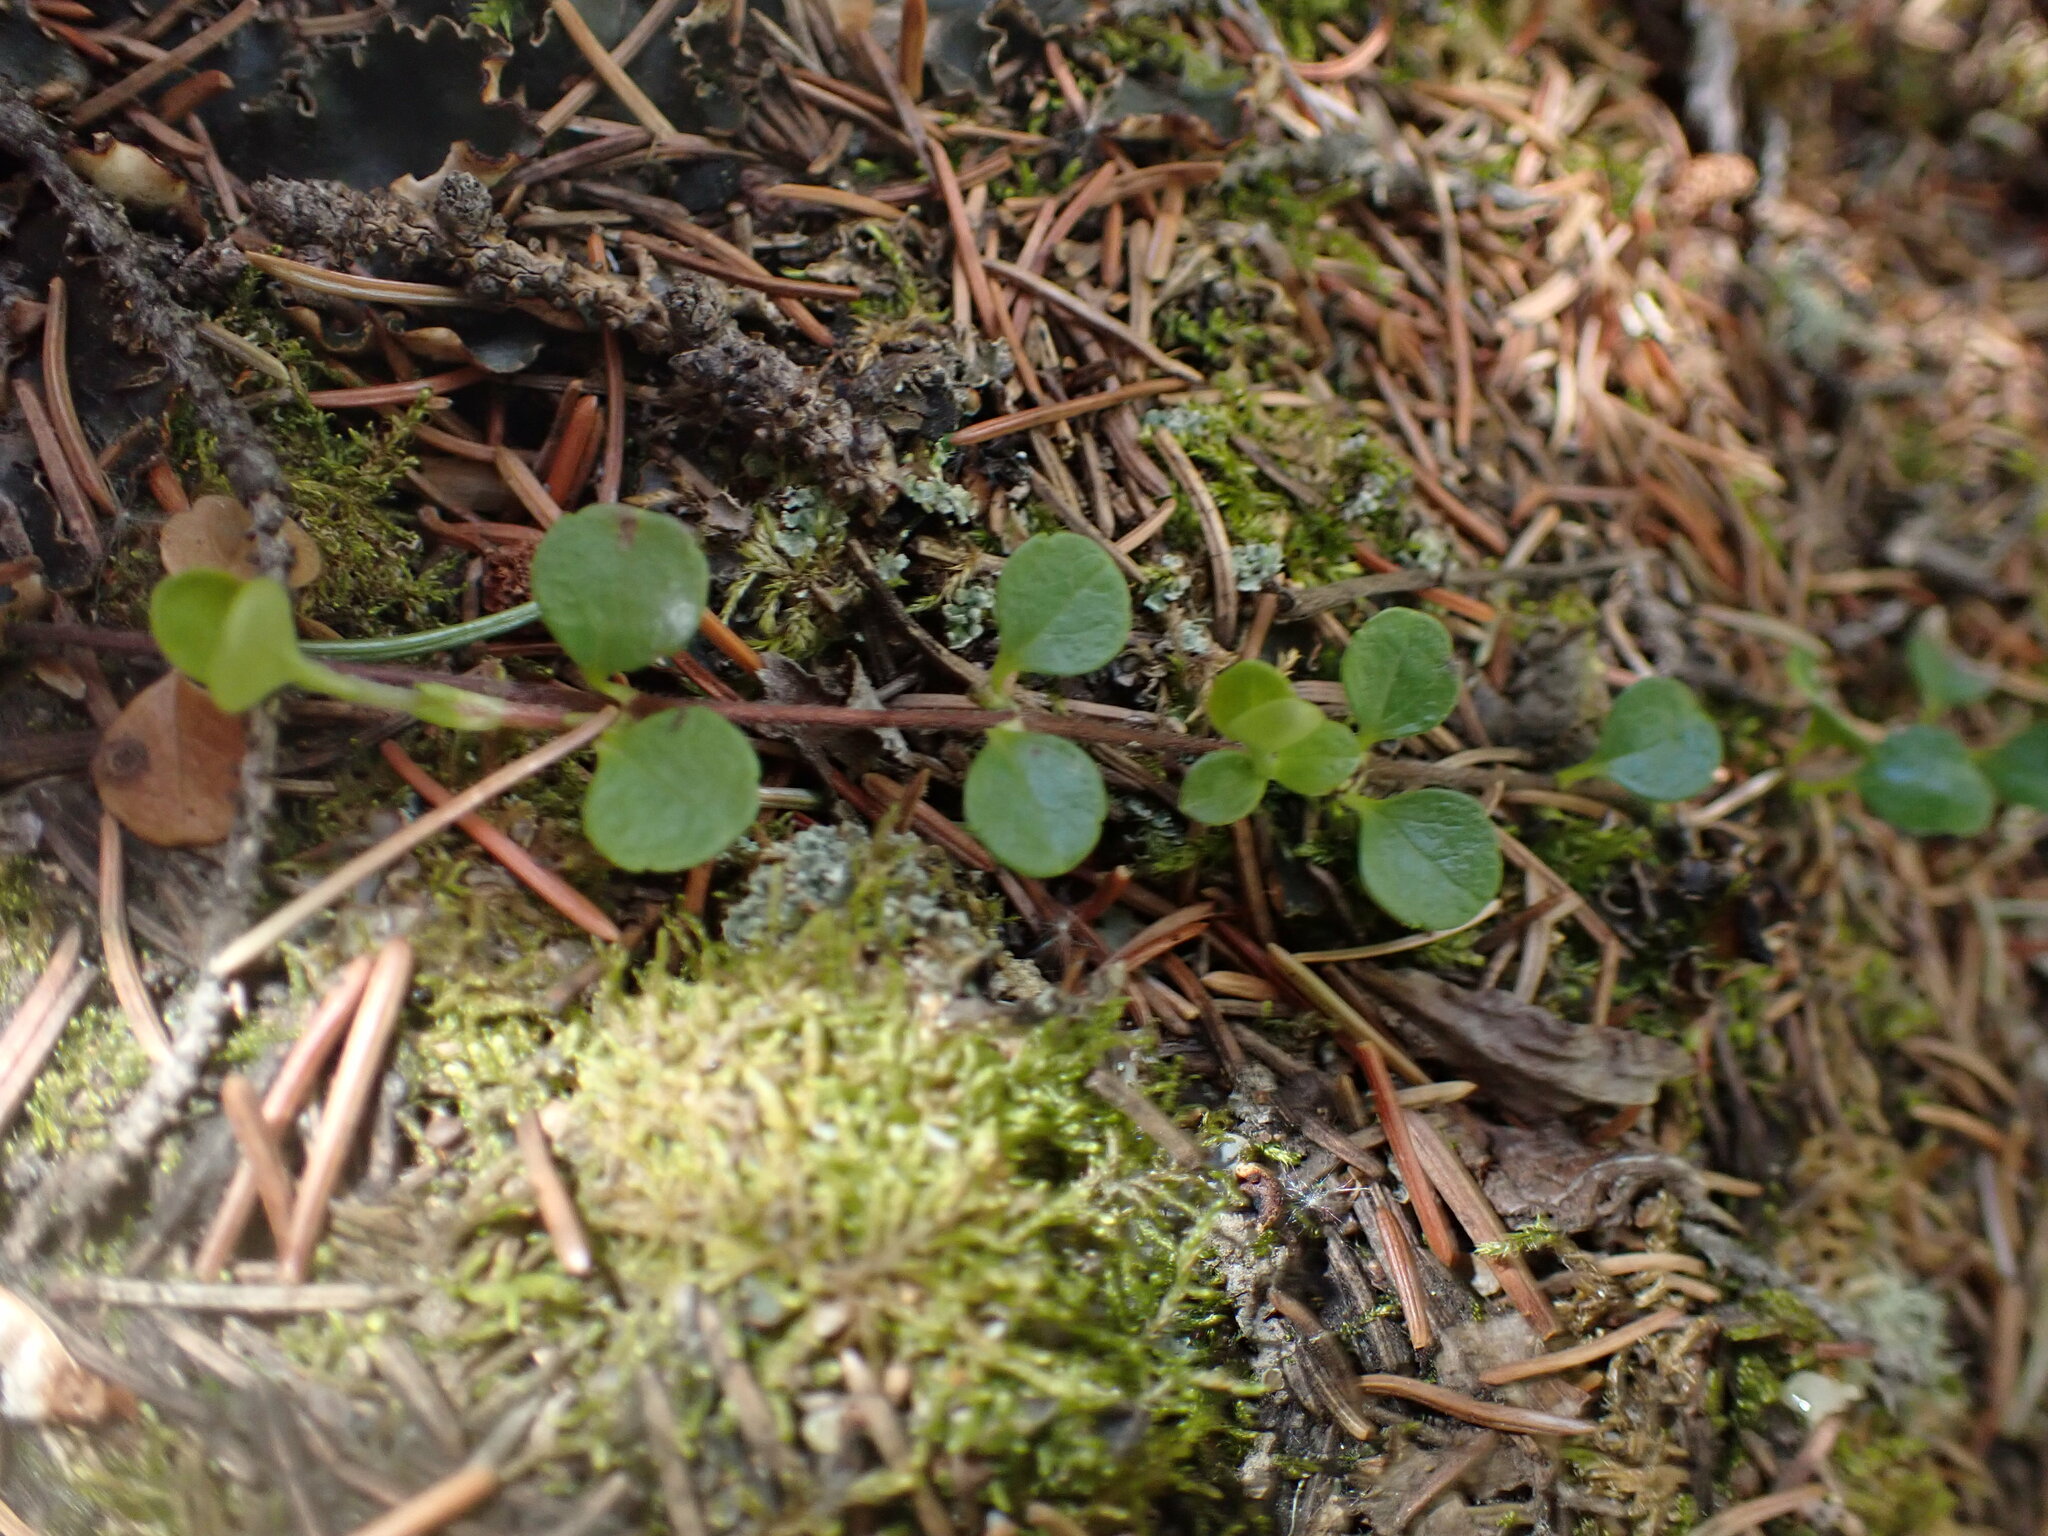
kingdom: Plantae
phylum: Tracheophyta
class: Magnoliopsida
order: Dipsacales
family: Caprifoliaceae
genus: Linnaea
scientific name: Linnaea borealis
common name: Twinflower
